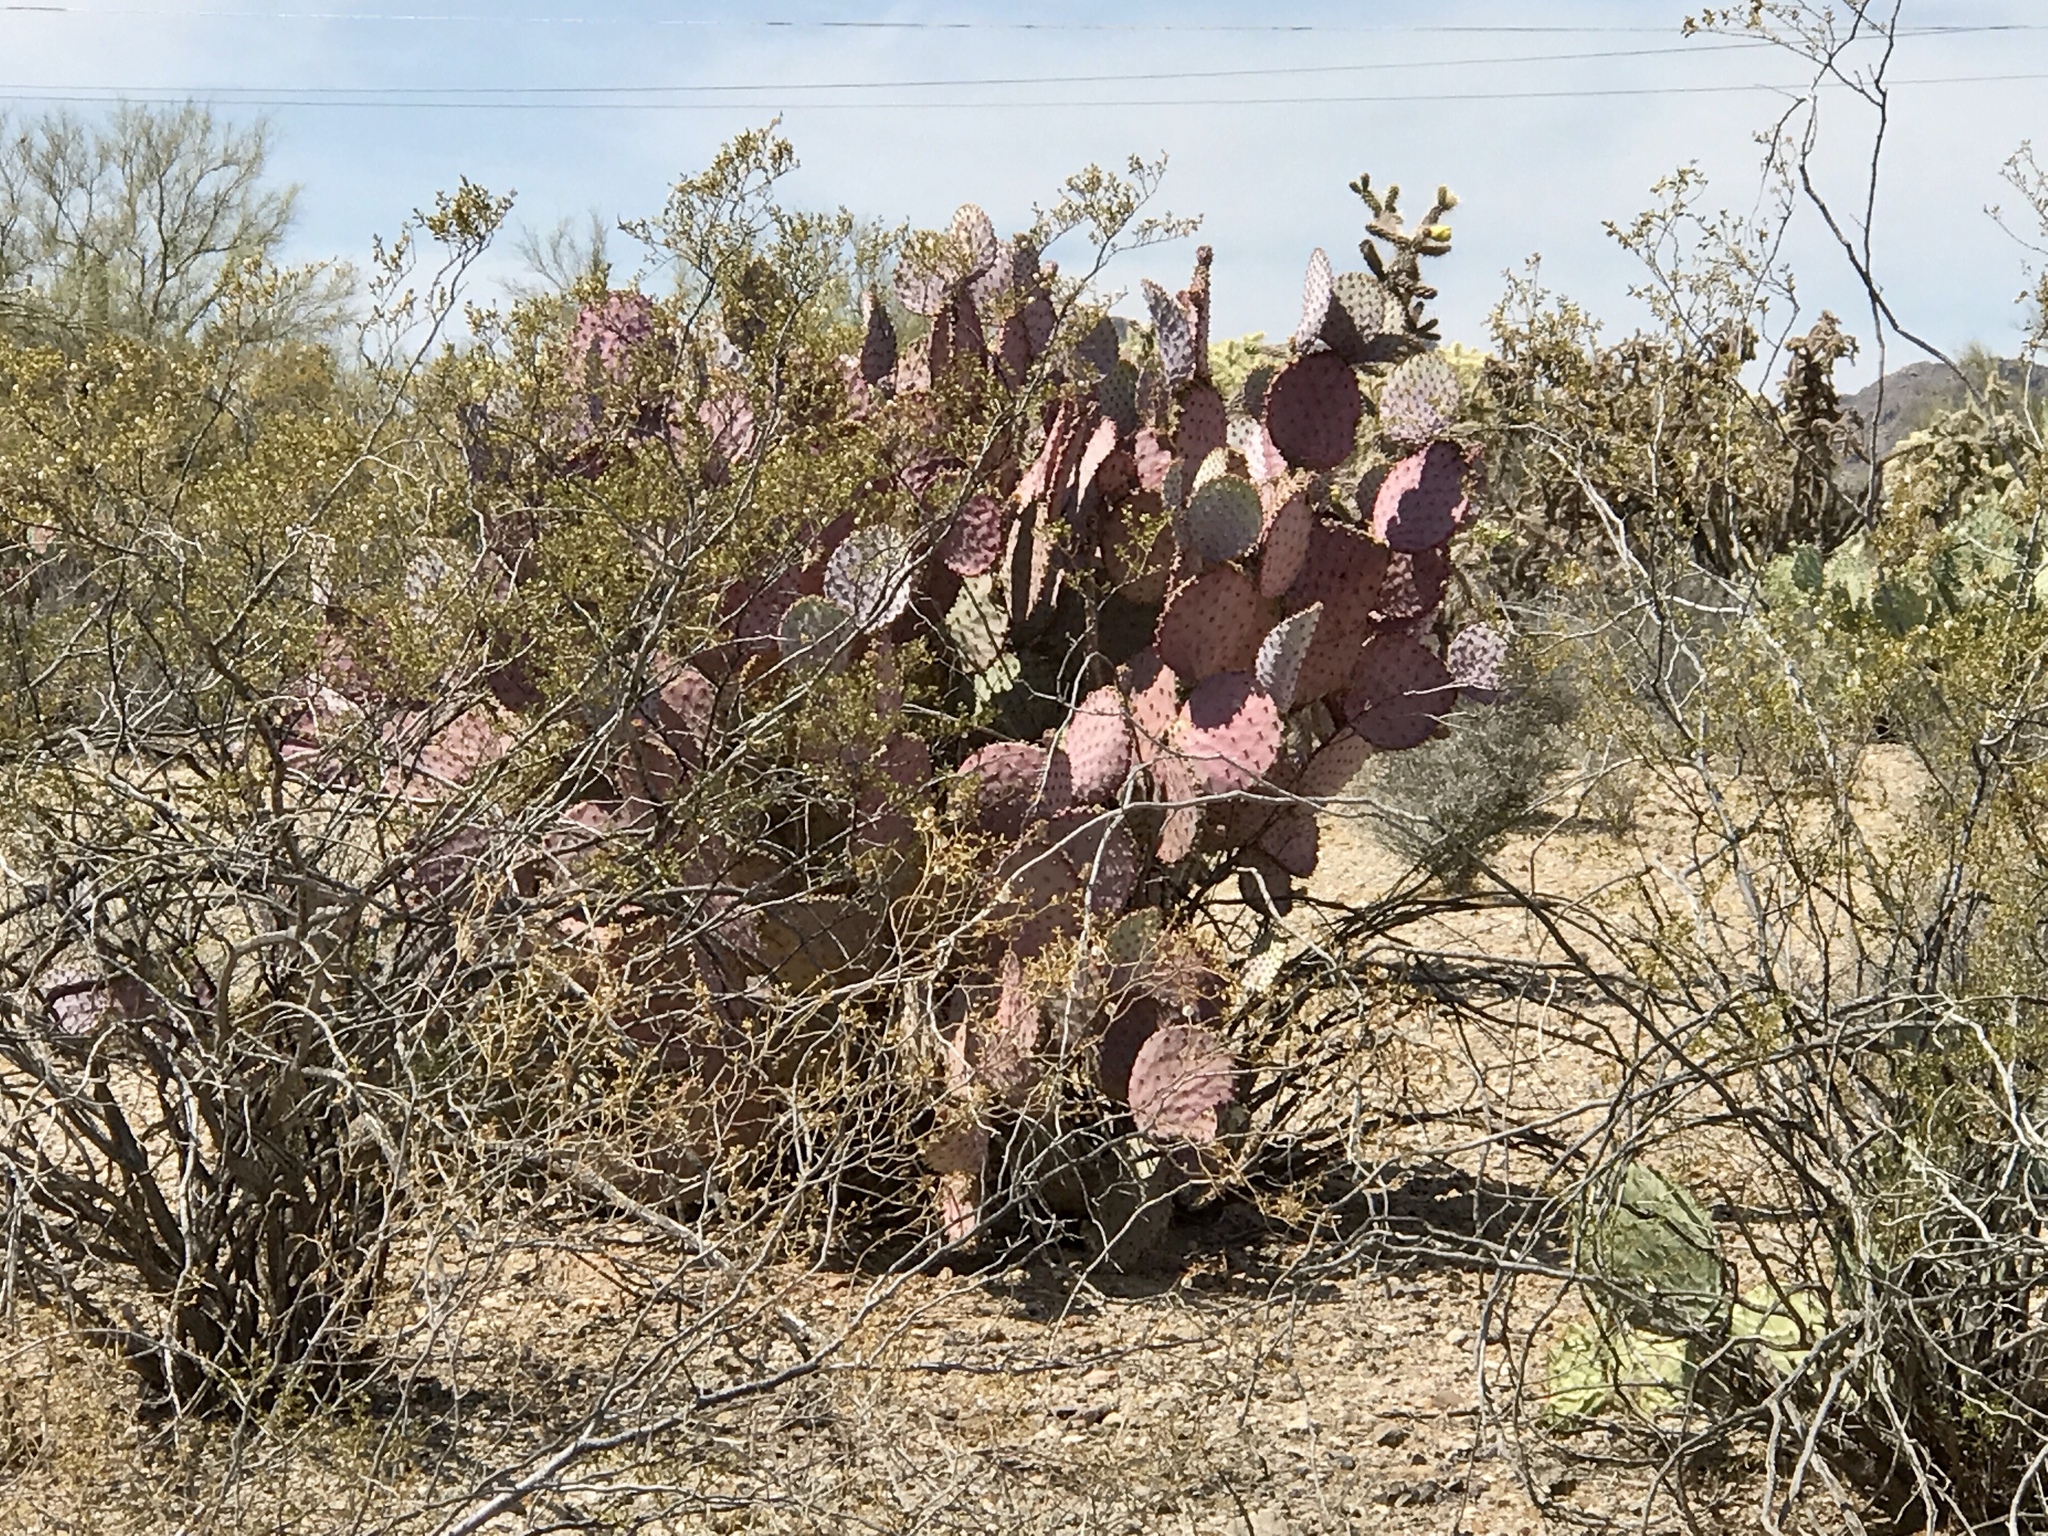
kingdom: Plantae
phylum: Tracheophyta
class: Magnoliopsida
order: Caryophyllales
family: Cactaceae
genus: Opuntia
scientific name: Opuntia gosseliniana
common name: Violet prickly-pear
